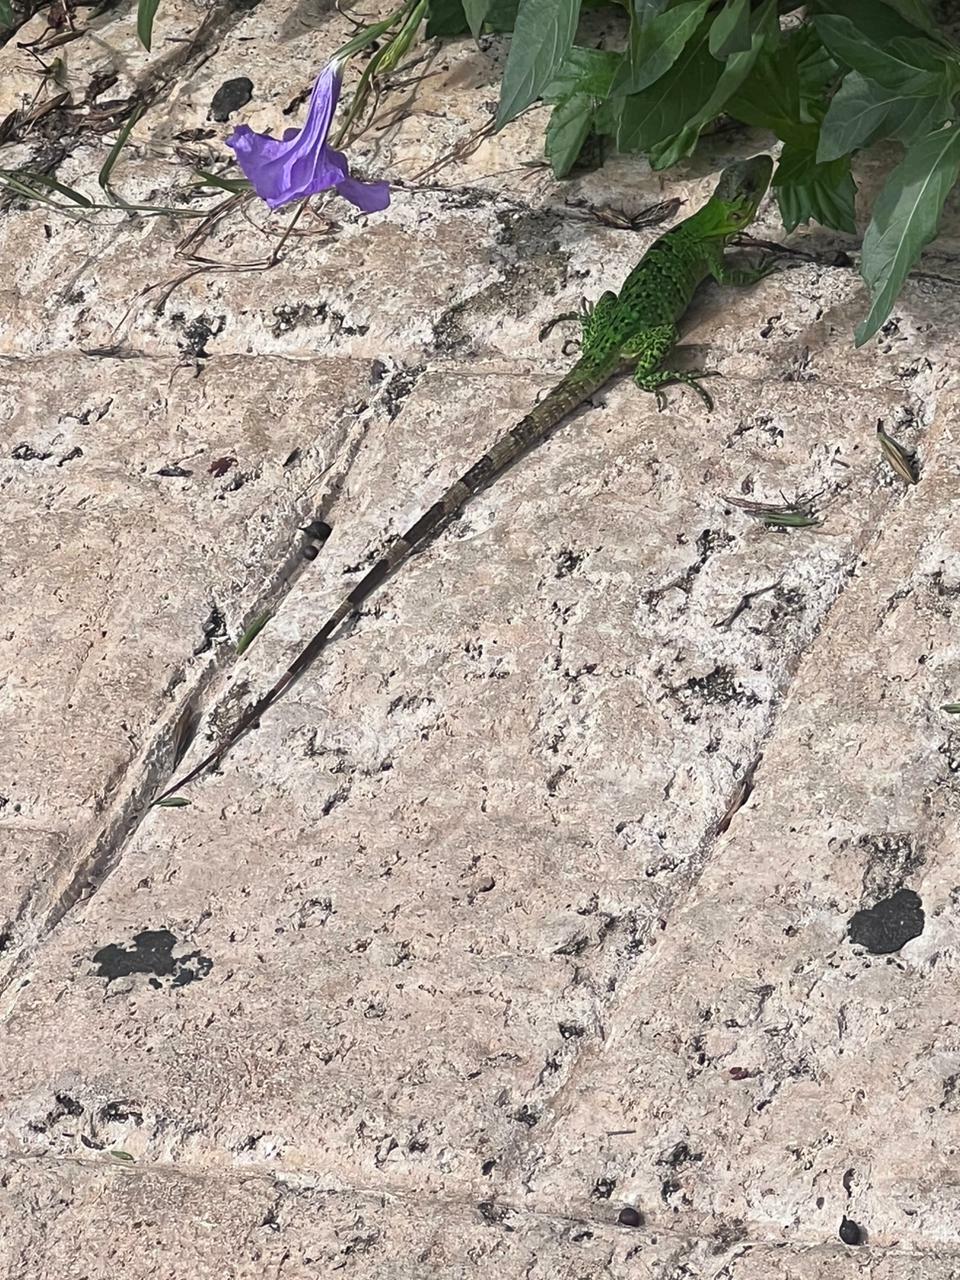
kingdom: Animalia
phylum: Chordata
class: Squamata
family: Iguanidae
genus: Ctenosaura
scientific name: Ctenosaura similis
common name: Black spiny-tailed iguana
